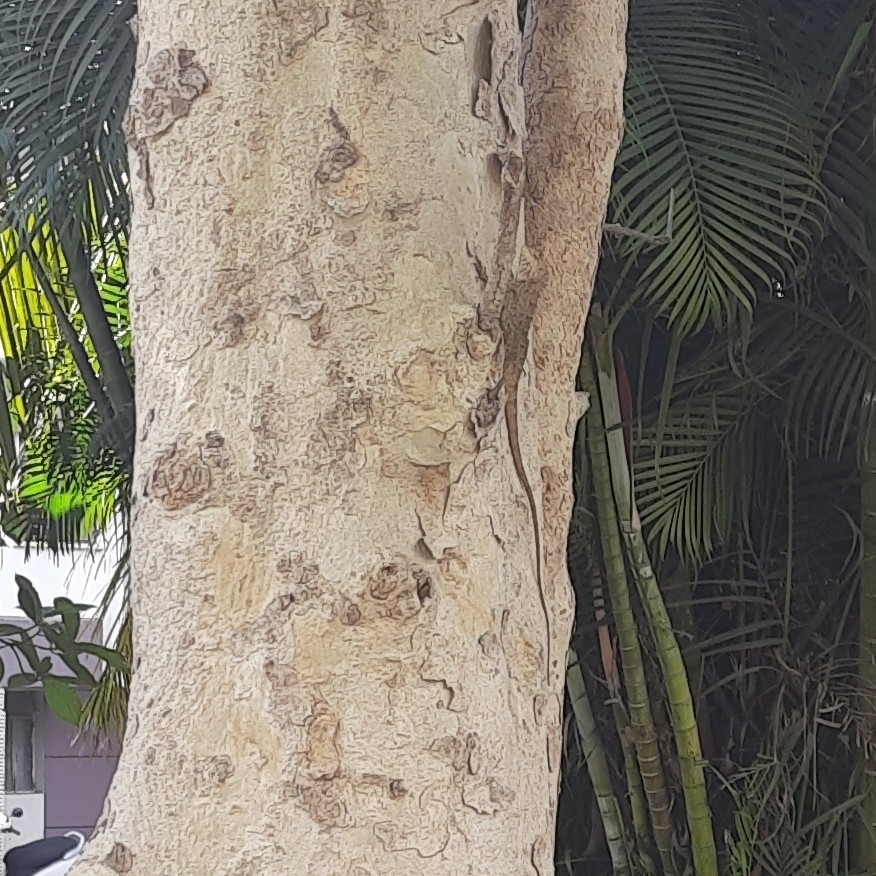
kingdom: Animalia
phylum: Chordata
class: Squamata
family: Agamidae
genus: Calotes
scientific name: Calotes versicolor
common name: Oriental garden lizard
